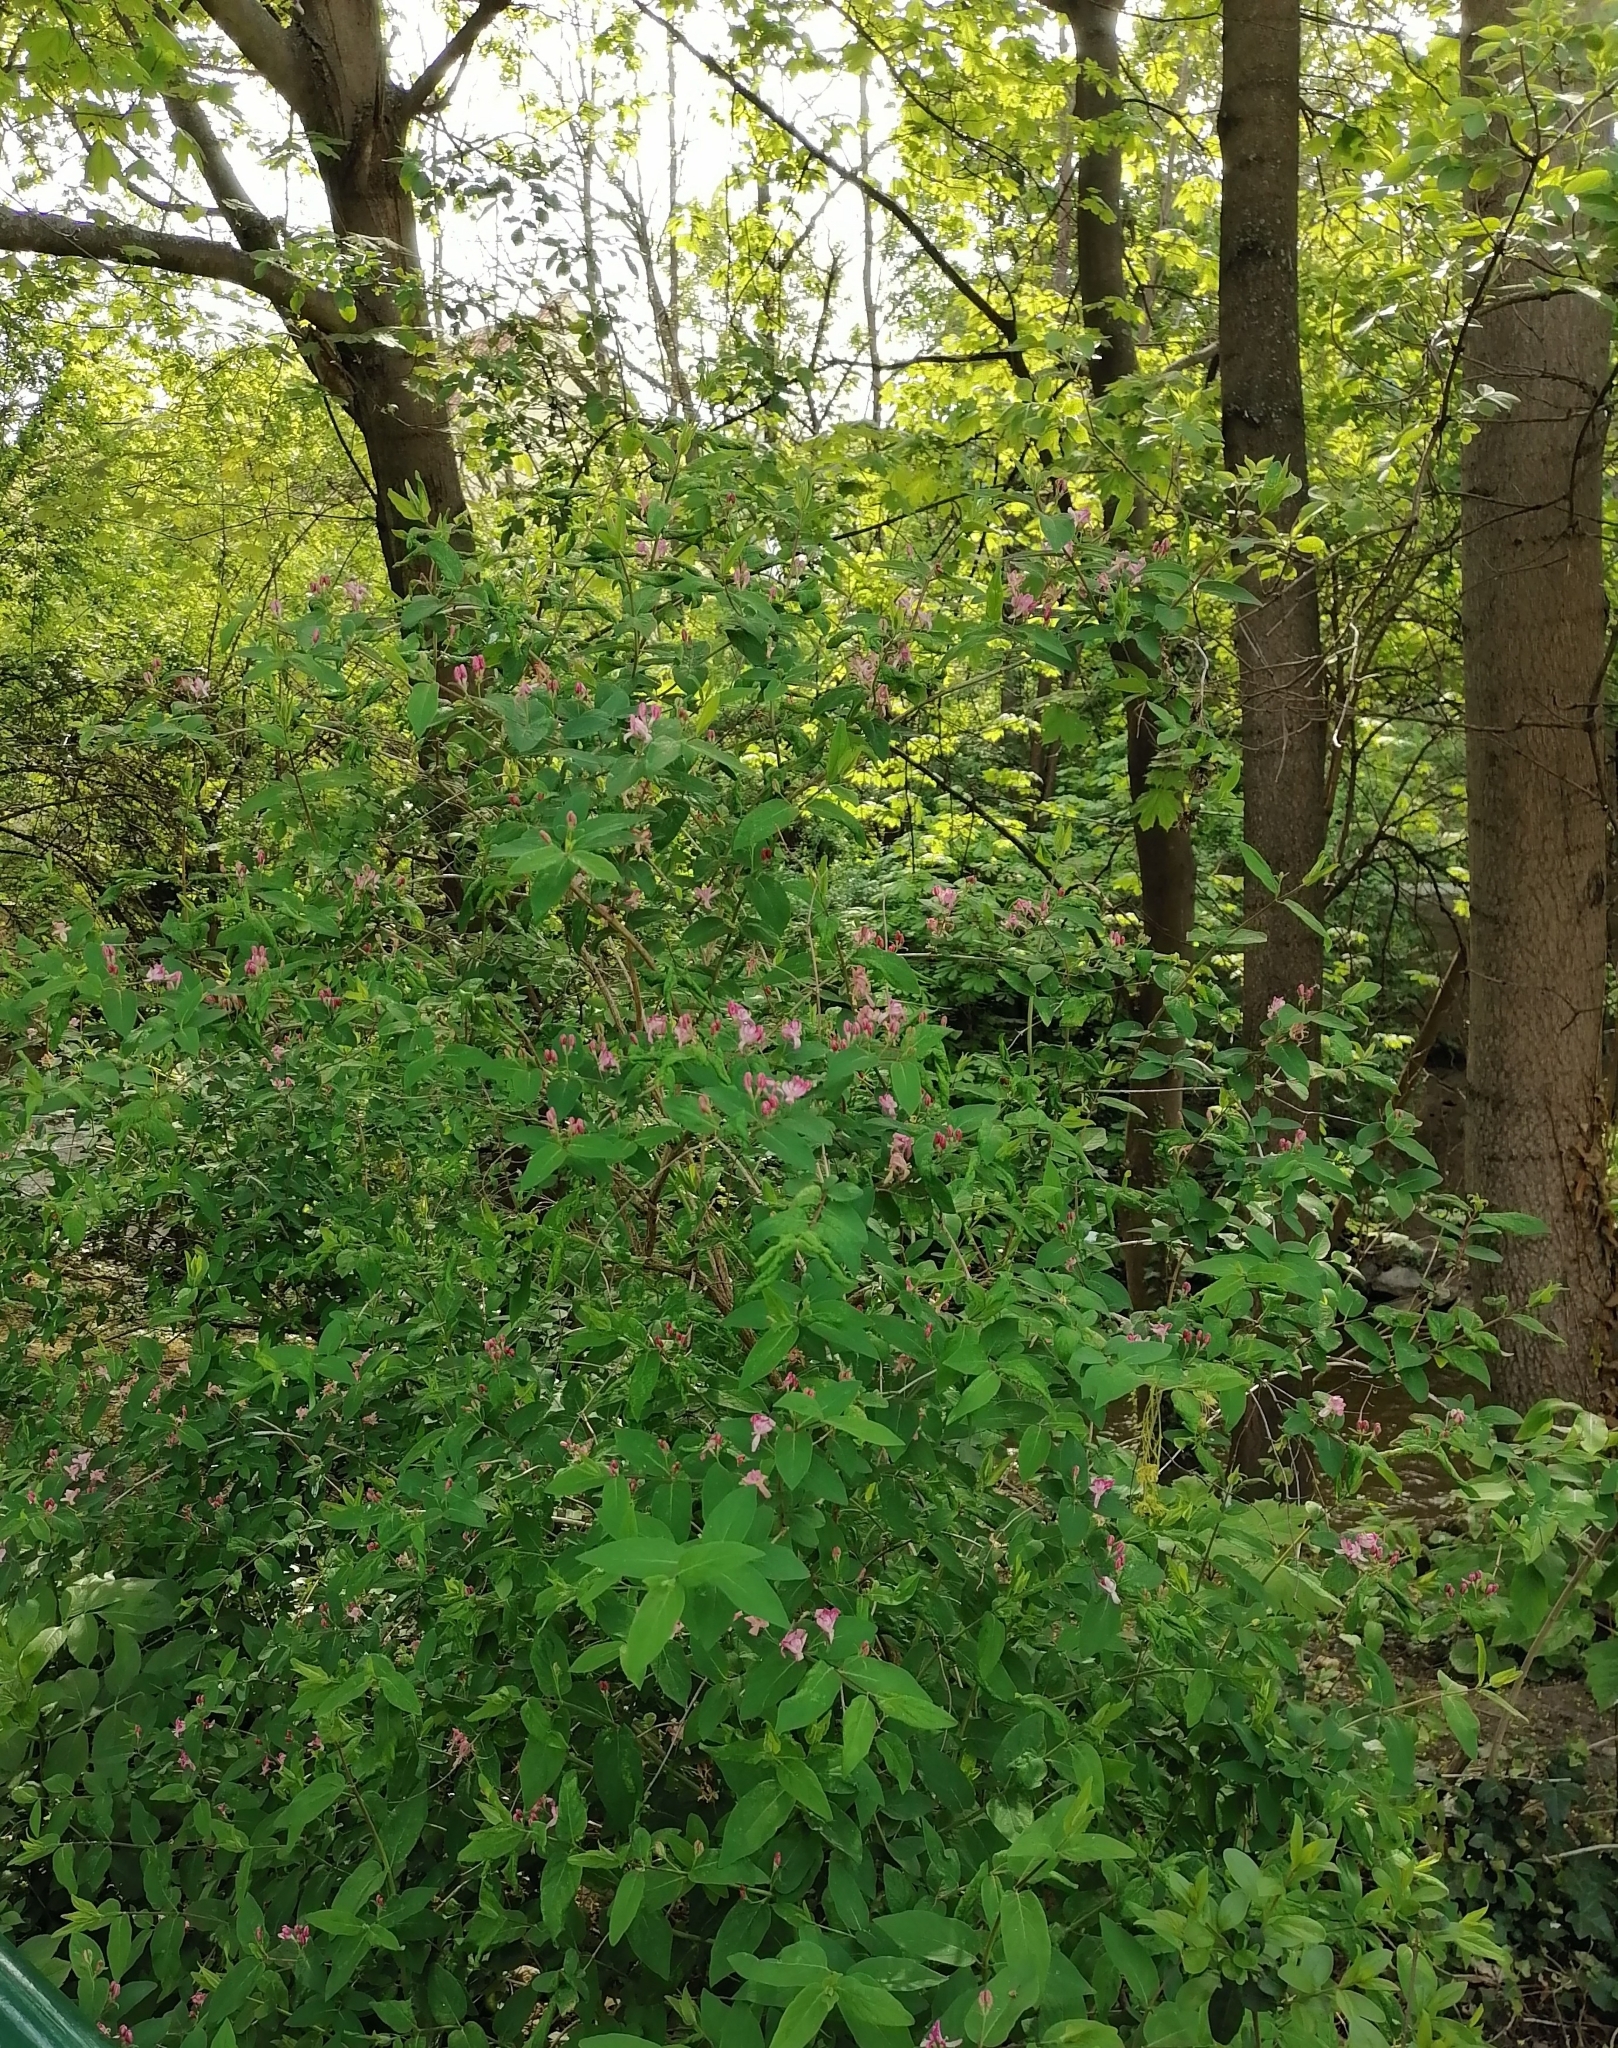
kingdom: Plantae
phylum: Tracheophyta
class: Magnoliopsida
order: Dipsacales
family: Caprifoliaceae
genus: Lonicera
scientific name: Lonicera tatarica
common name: Tatarian honeysuckle
